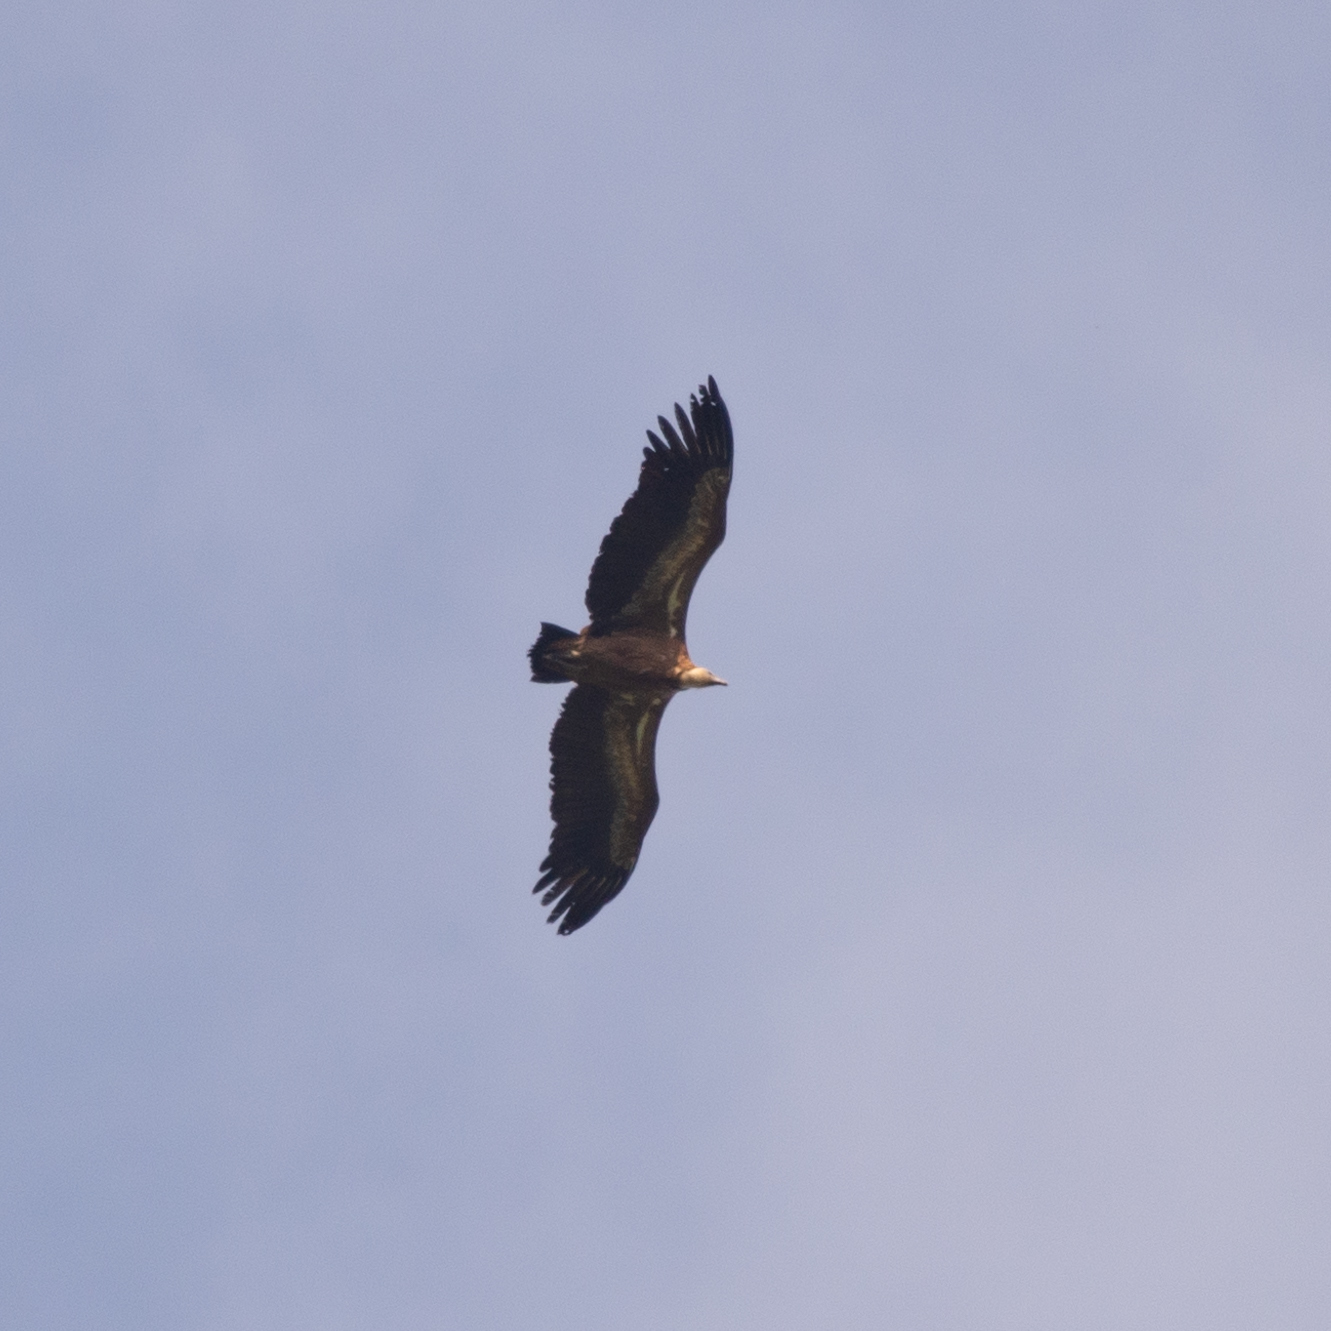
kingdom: Animalia
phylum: Chordata
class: Aves
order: Accipitriformes
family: Accipitridae
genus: Gyps
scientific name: Gyps fulvus
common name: Griffon vulture
